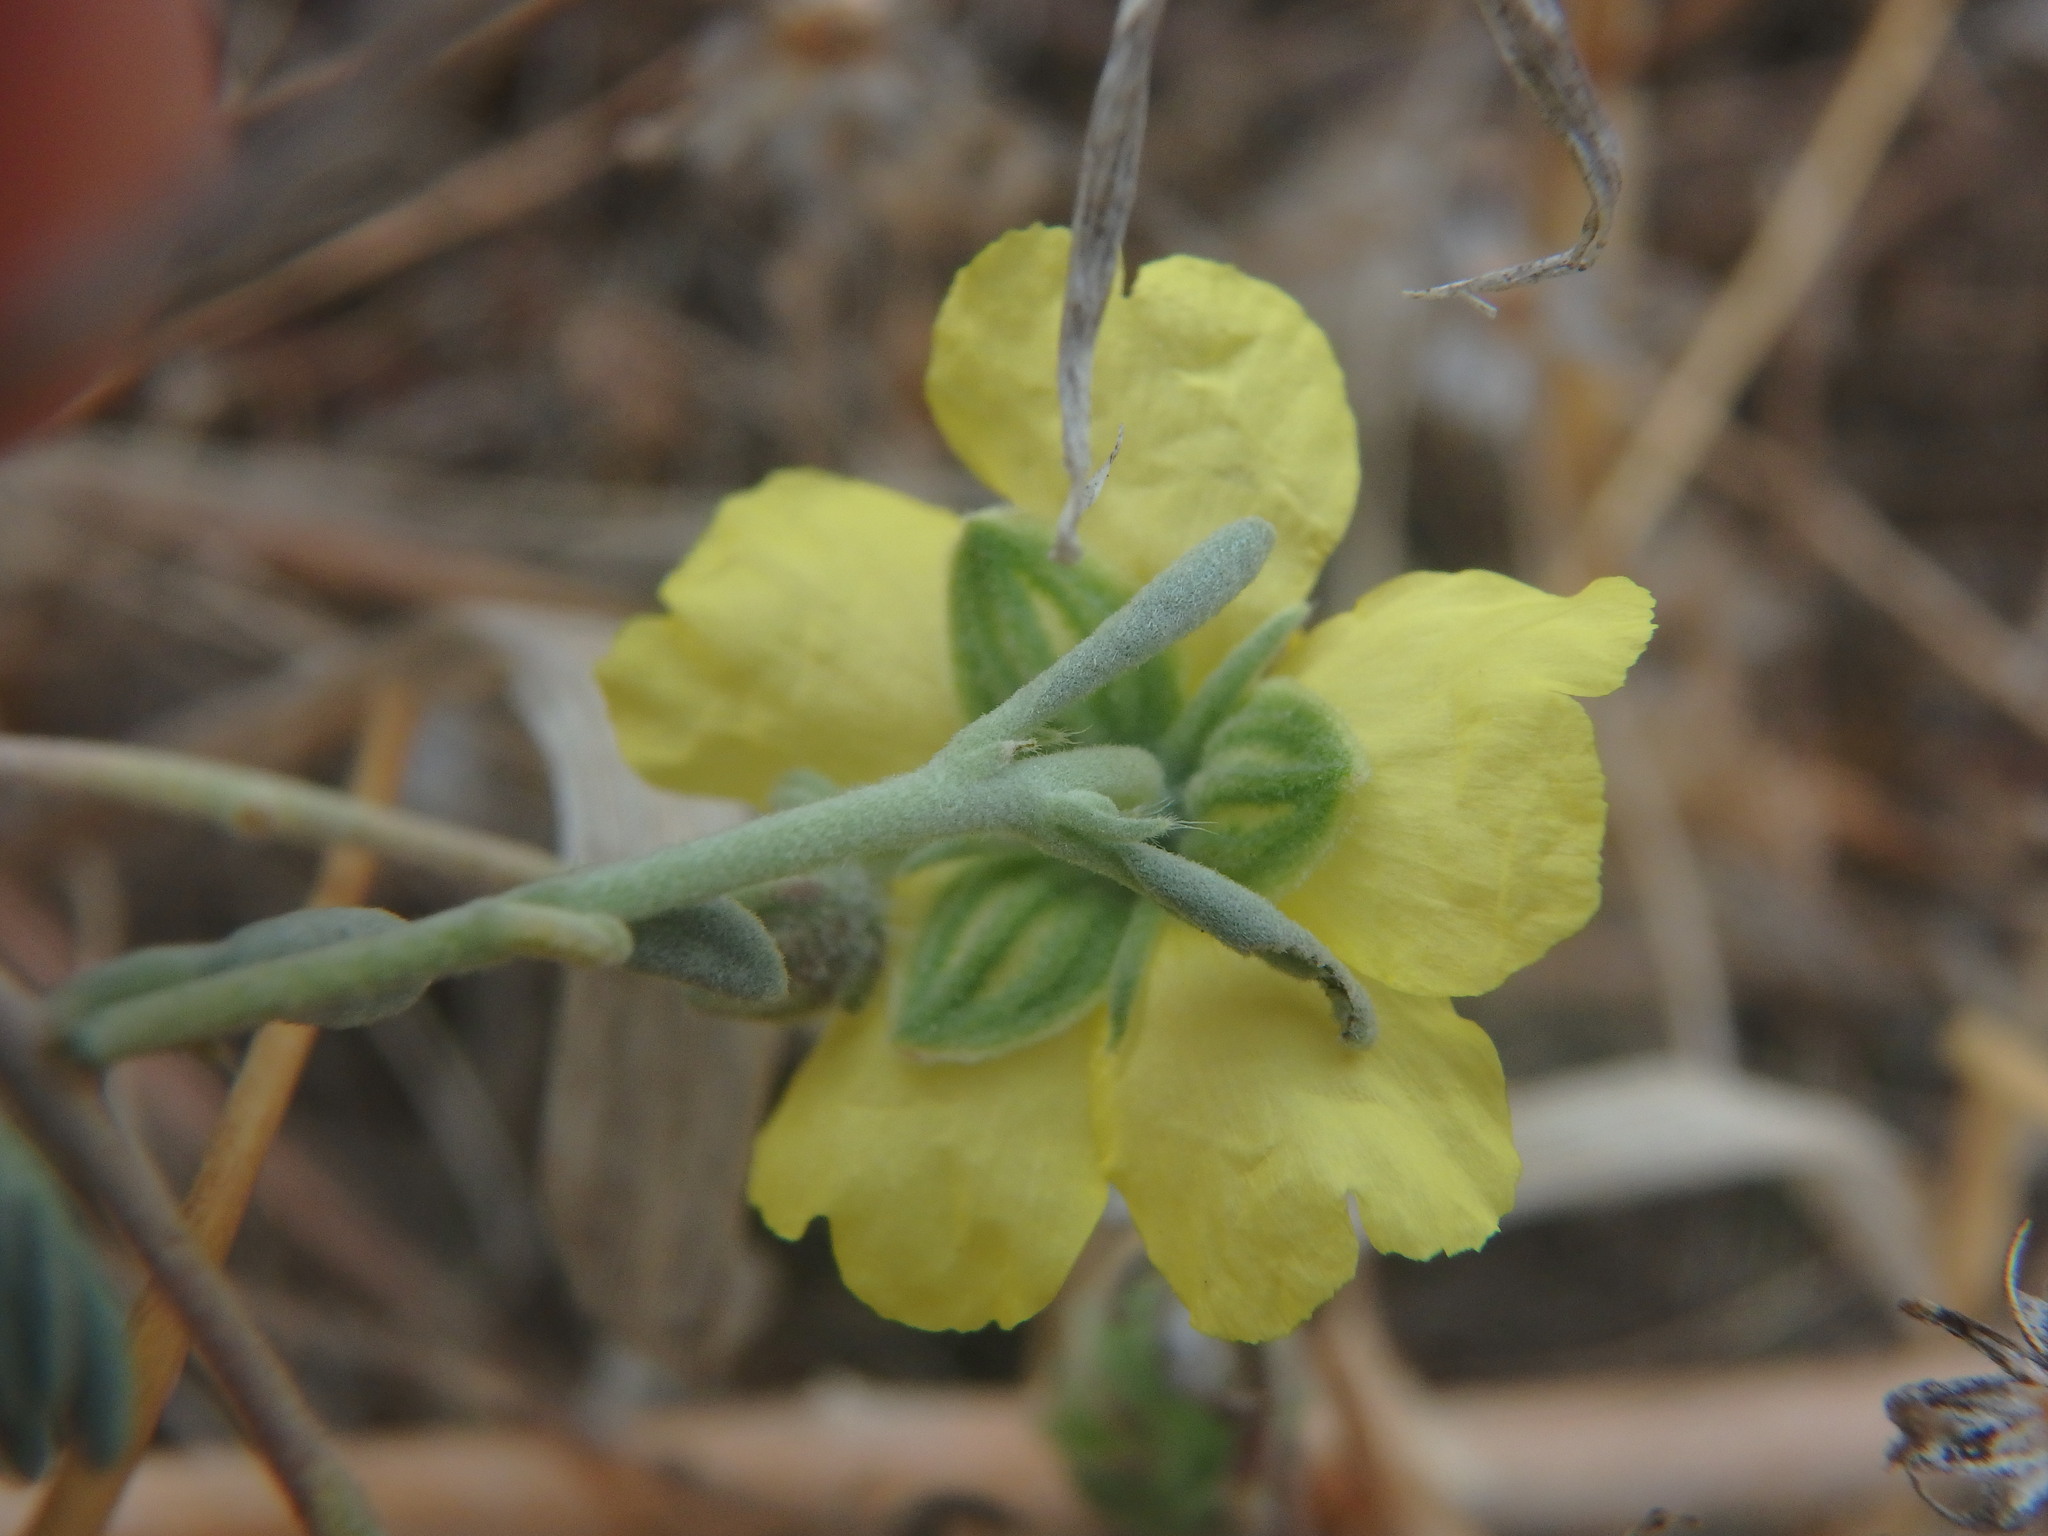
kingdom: Plantae
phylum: Tracheophyta
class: Magnoliopsida
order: Malvales
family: Cistaceae
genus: Helianthemum
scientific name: Helianthemum stipulatum
